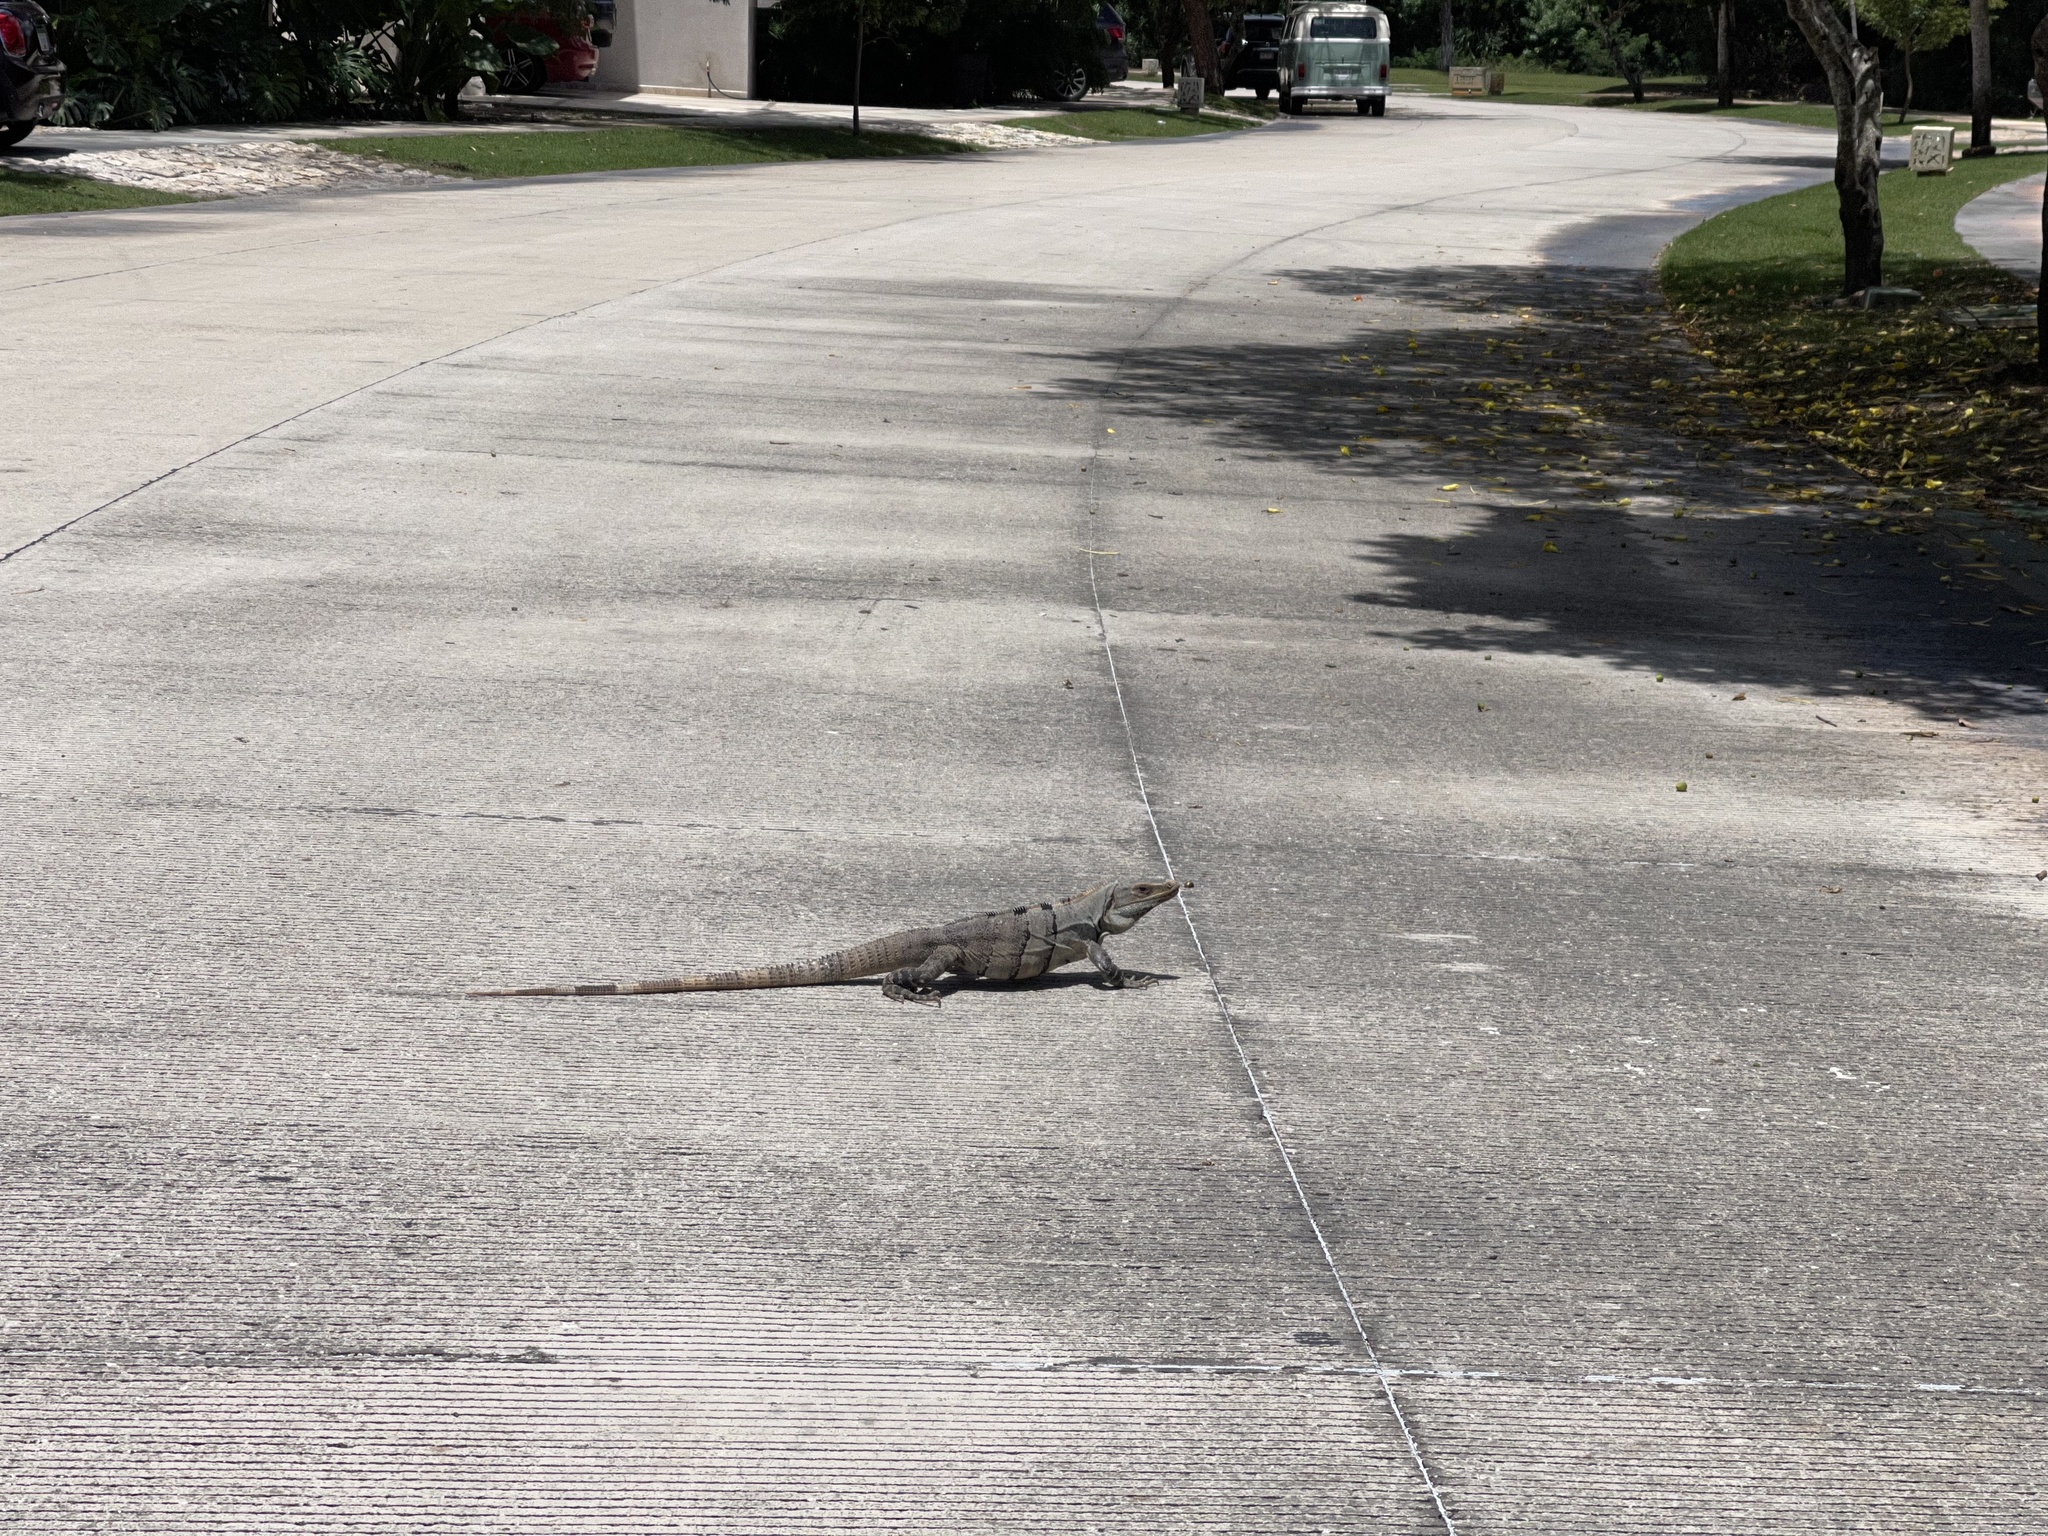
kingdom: Animalia
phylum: Chordata
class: Squamata
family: Iguanidae
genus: Ctenosaura
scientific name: Ctenosaura similis
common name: Black spiny-tailed iguana
